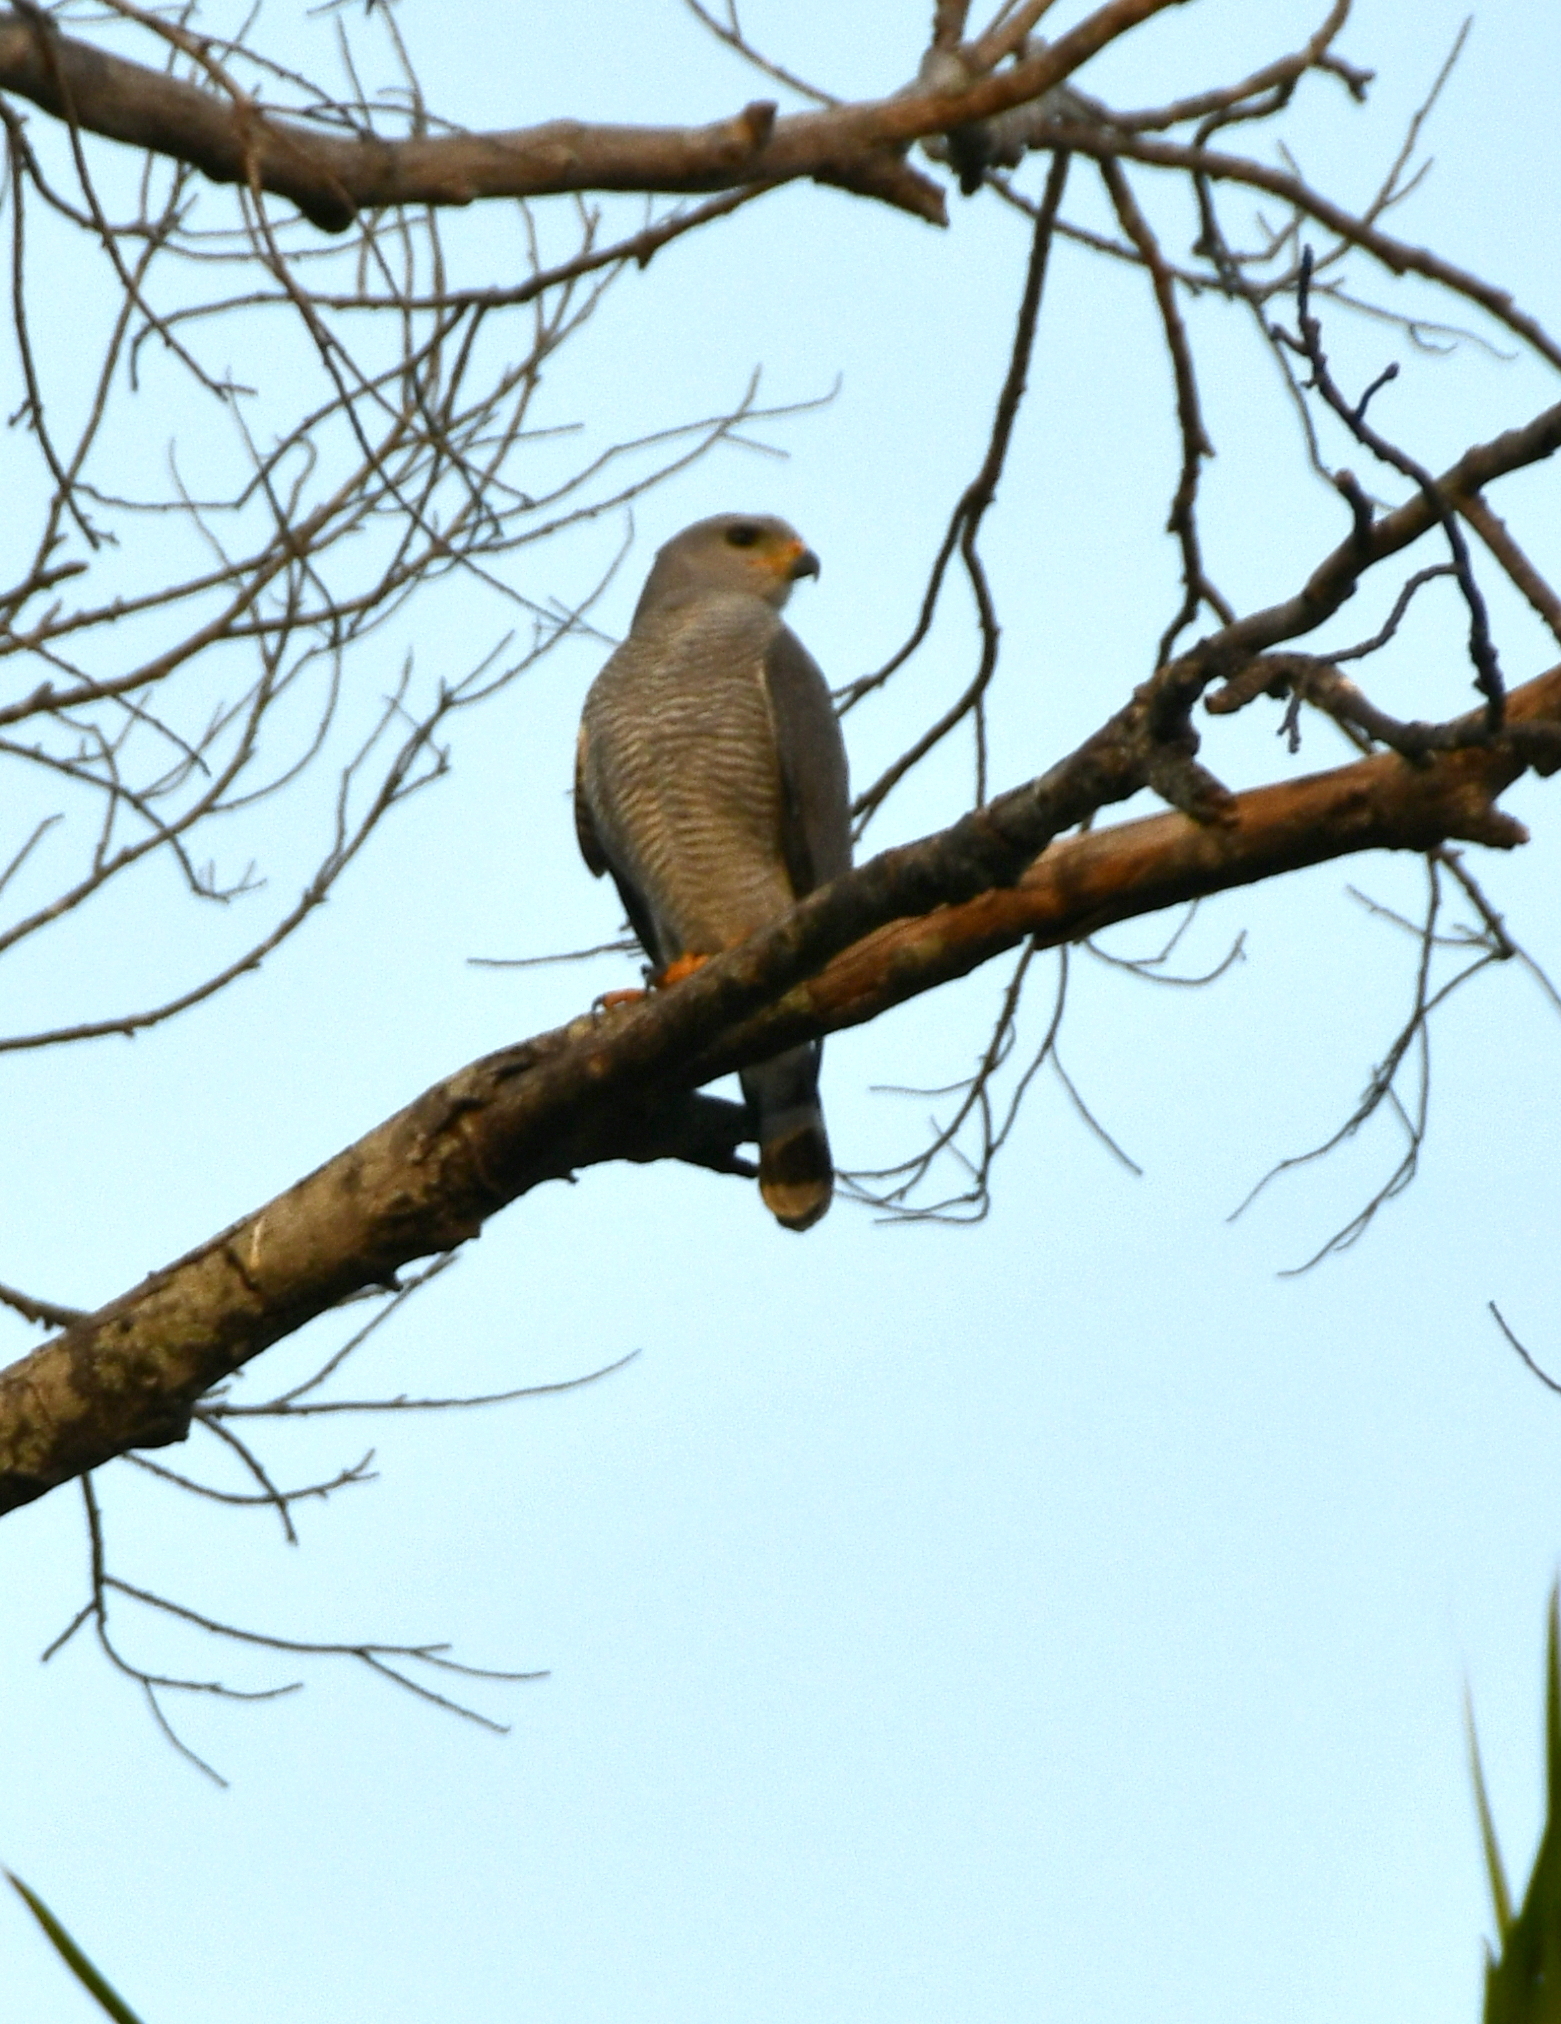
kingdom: Animalia
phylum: Chordata
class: Aves
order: Accipitriformes
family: Accipitridae
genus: Buteo
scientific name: Buteo nitidus
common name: Grey-lined hawk
